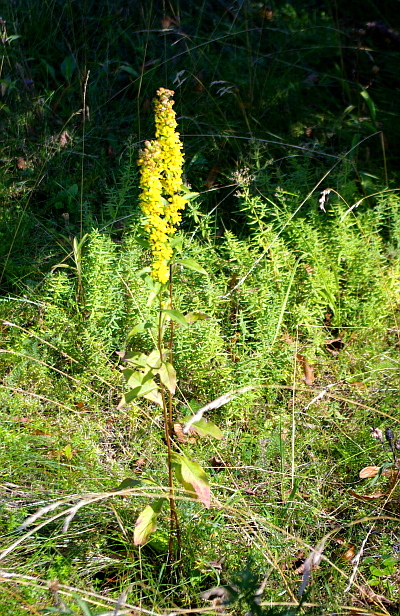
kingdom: Plantae
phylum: Tracheophyta
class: Magnoliopsida
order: Asterales
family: Asteraceae
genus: Solidago
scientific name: Solidago virgaurea
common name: Goldenrod
